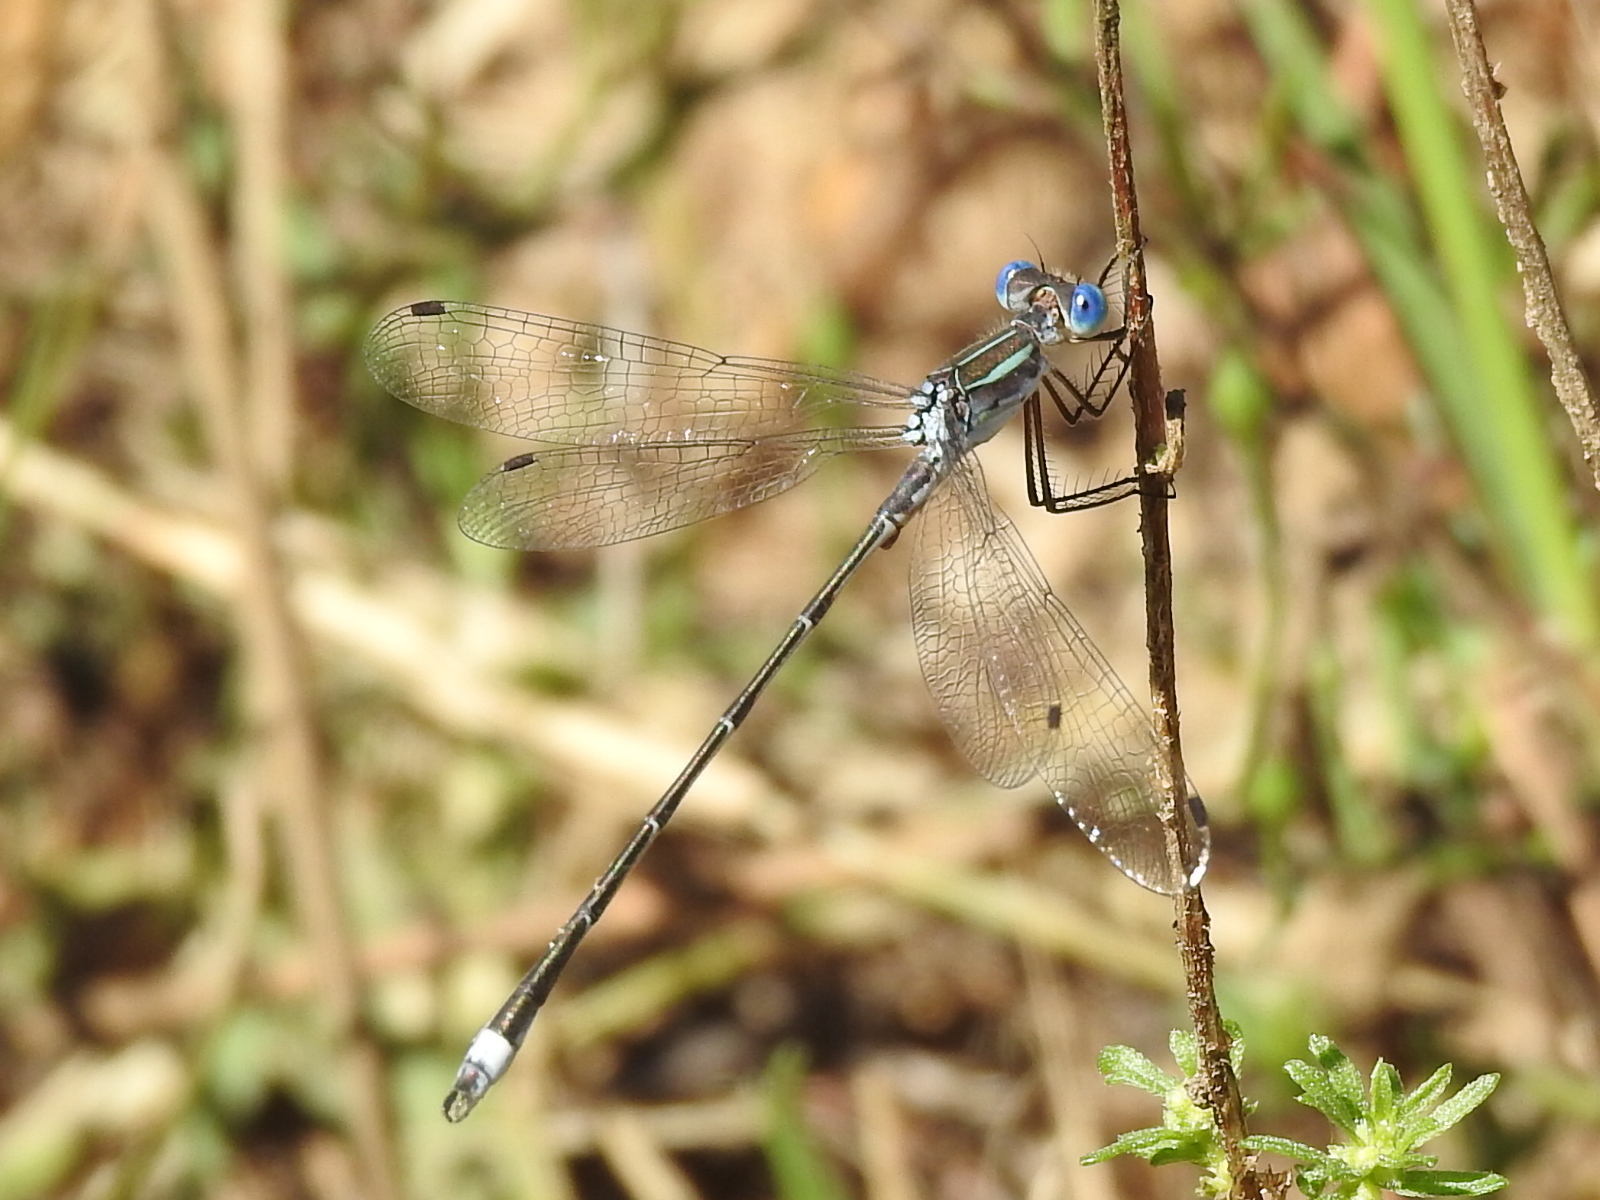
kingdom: Animalia
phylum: Arthropoda
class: Insecta
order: Odonata
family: Lestidae
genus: Lestes
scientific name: Lestes australis
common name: Southern spreadwing
